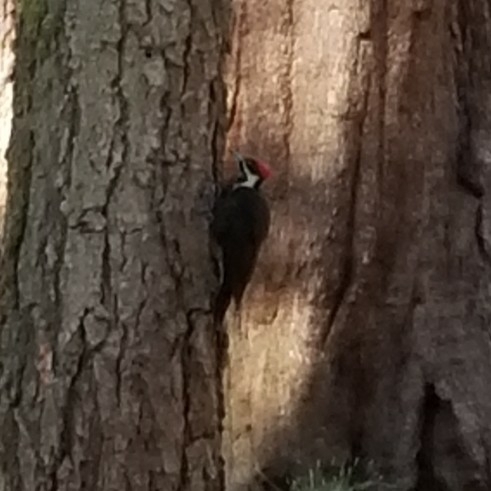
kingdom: Animalia
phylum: Chordata
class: Aves
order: Piciformes
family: Picidae
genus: Dryocopus
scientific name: Dryocopus pileatus
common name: Pileated woodpecker
